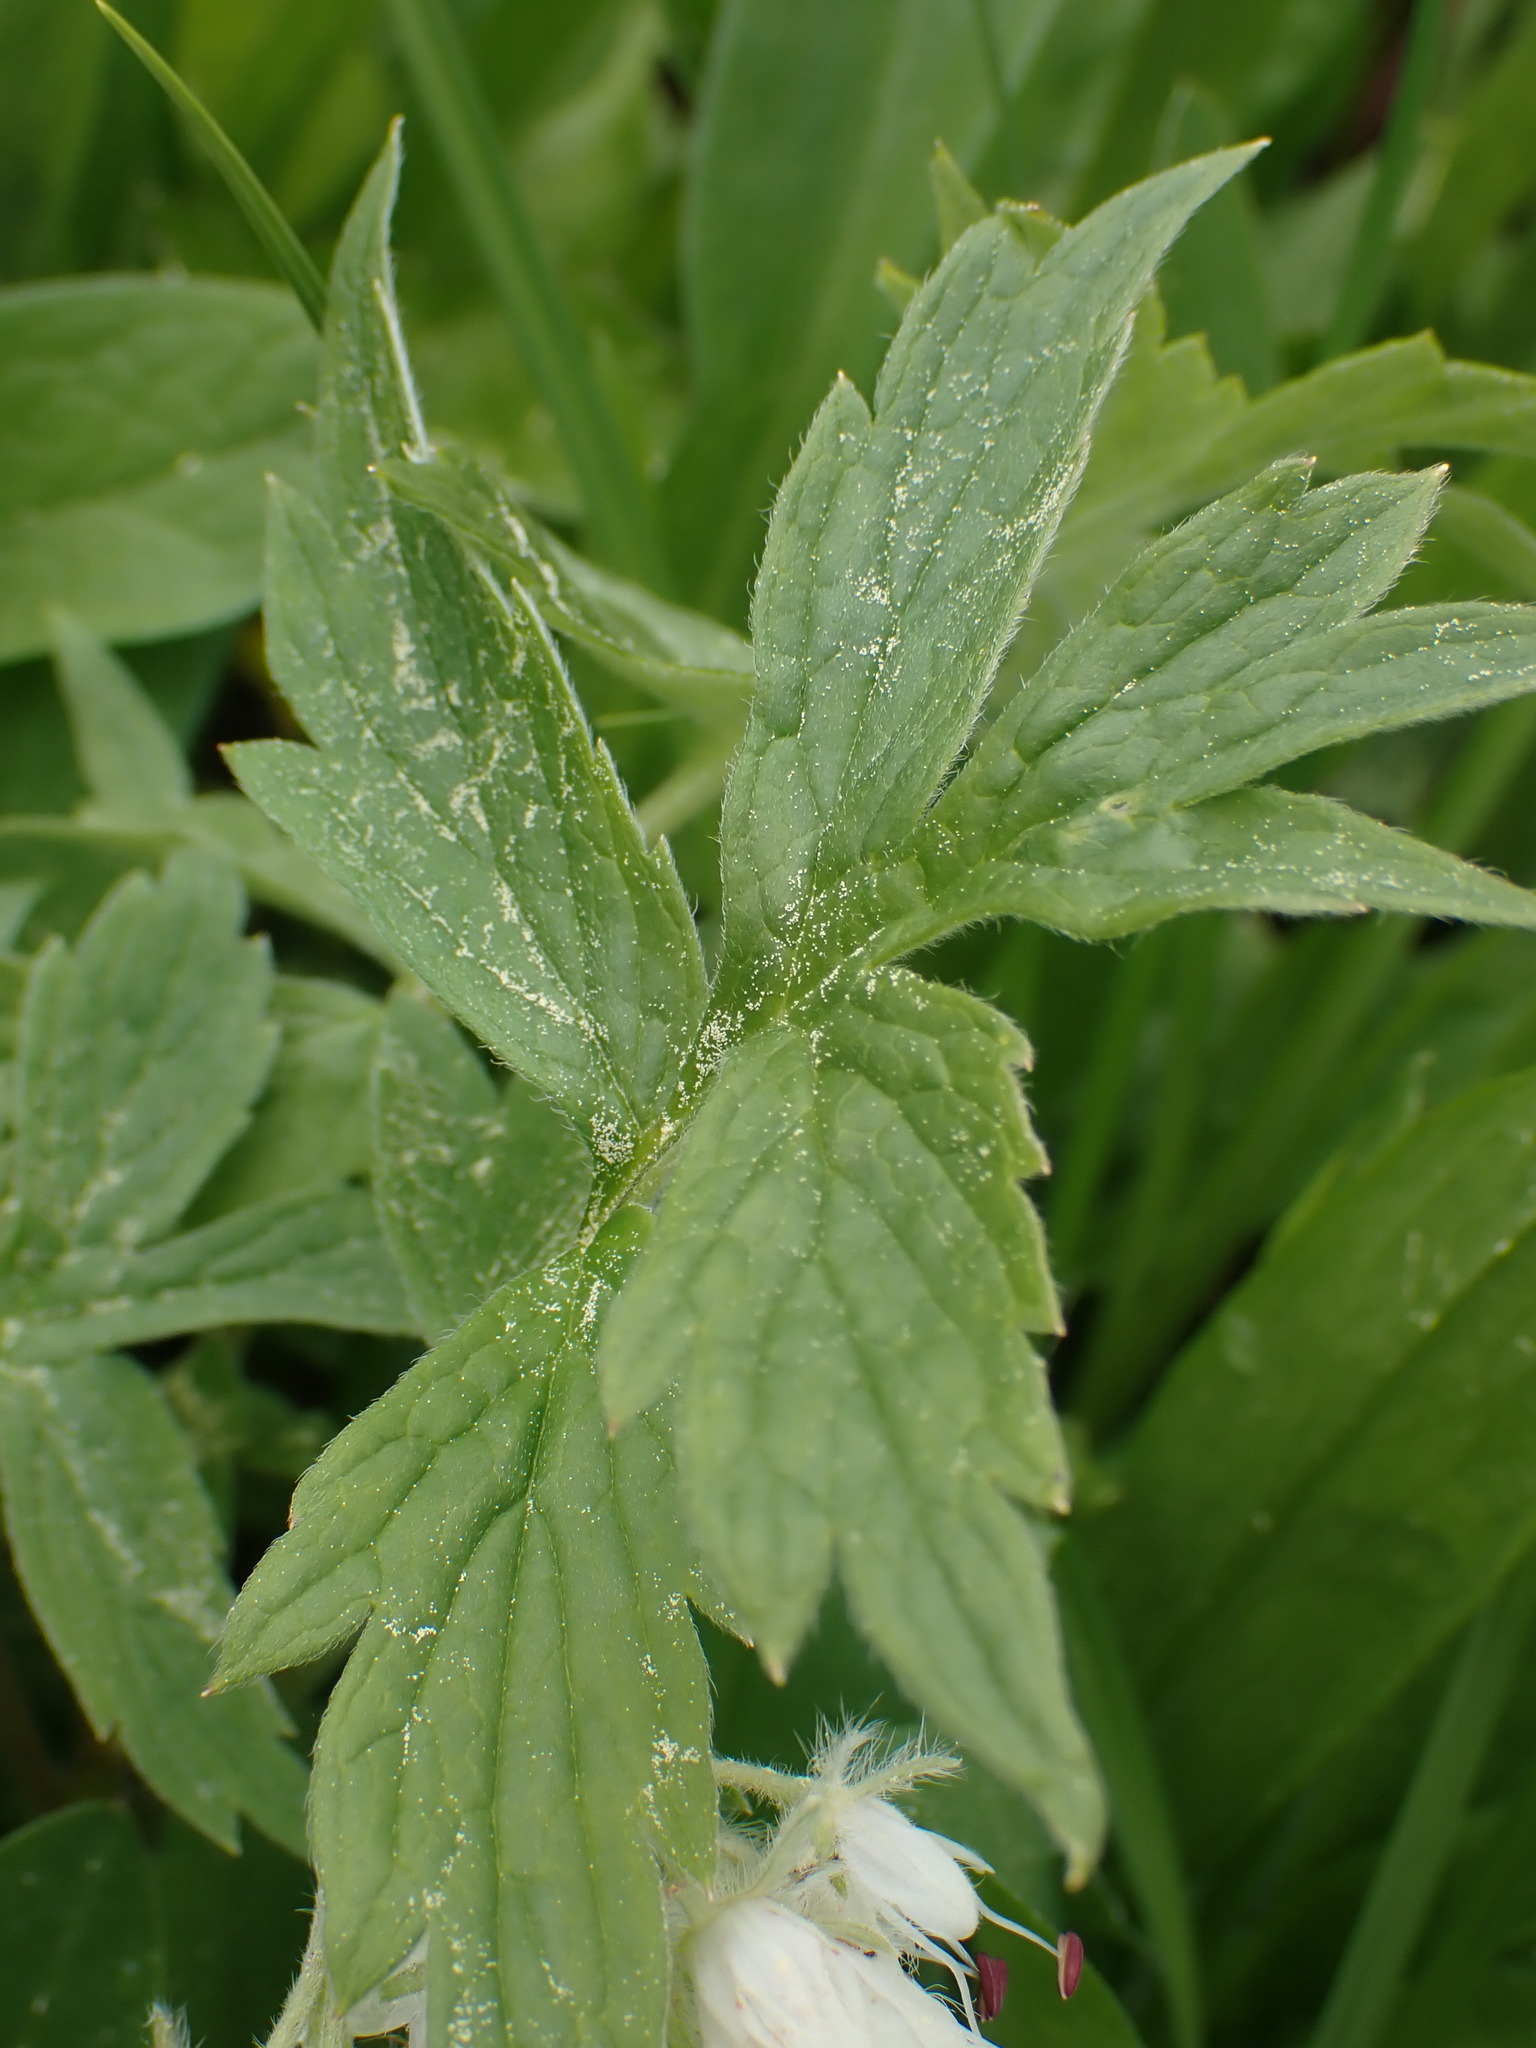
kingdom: Plantae
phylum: Tracheophyta
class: Magnoliopsida
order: Boraginales
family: Hydrophyllaceae
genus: Hydrophyllum
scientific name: Hydrophyllum fendleri
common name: Fendler's waterleaf
